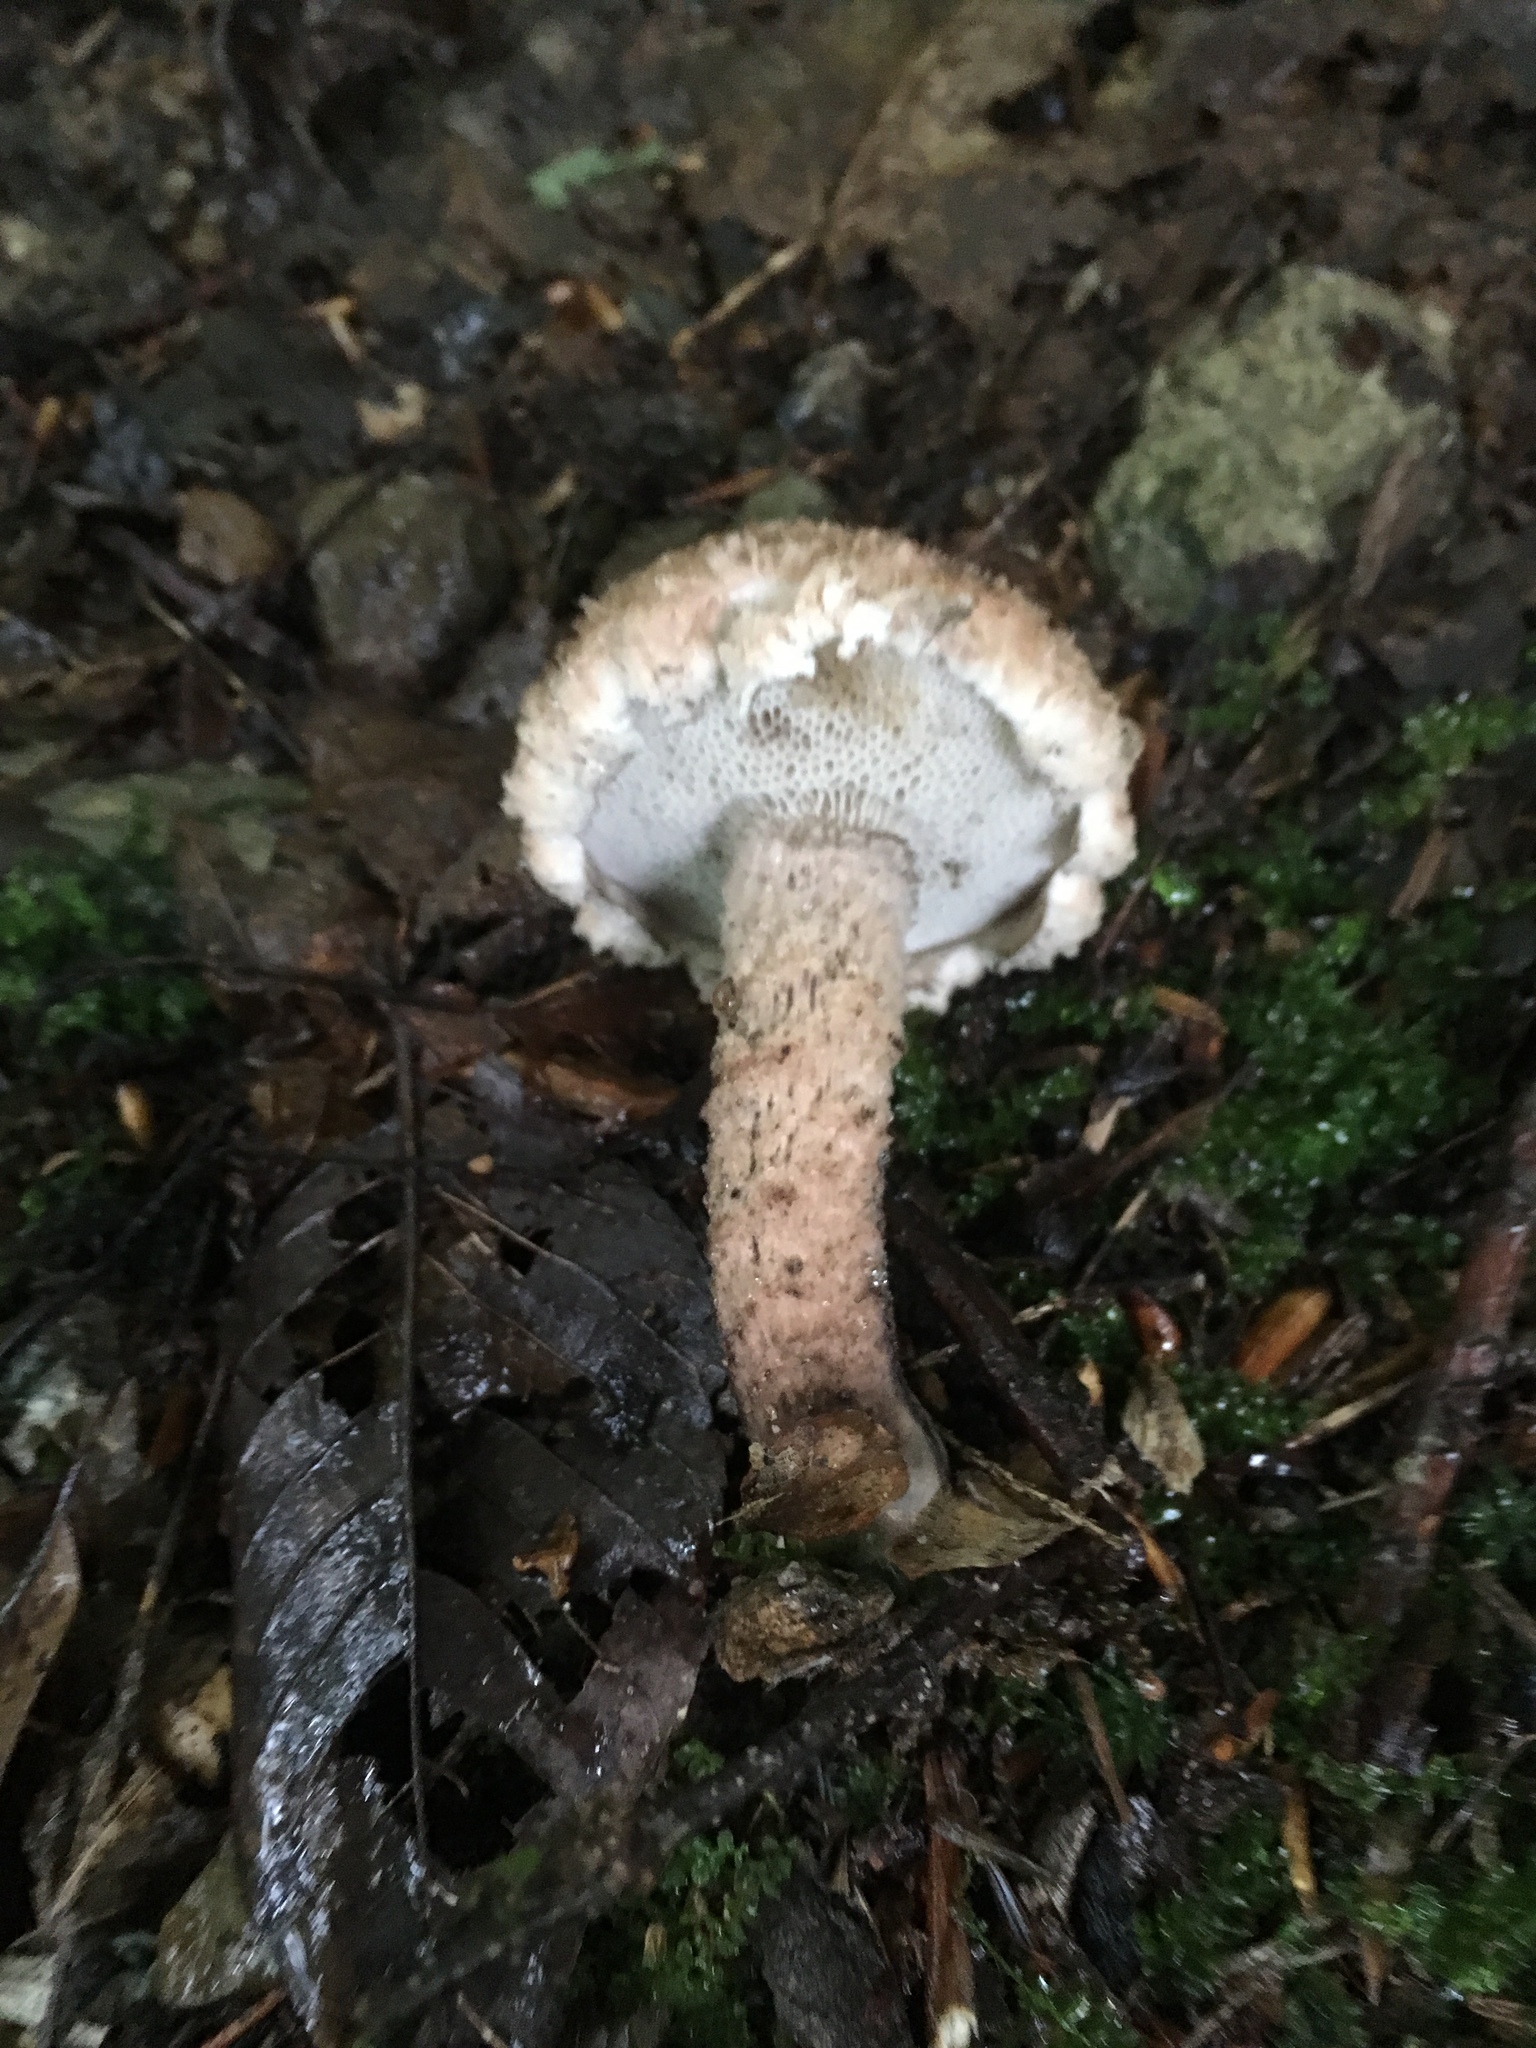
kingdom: Fungi
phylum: Basidiomycota
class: Agaricomycetes
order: Boletales
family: Boletaceae
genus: Strobilomyces
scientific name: Strobilomyces
